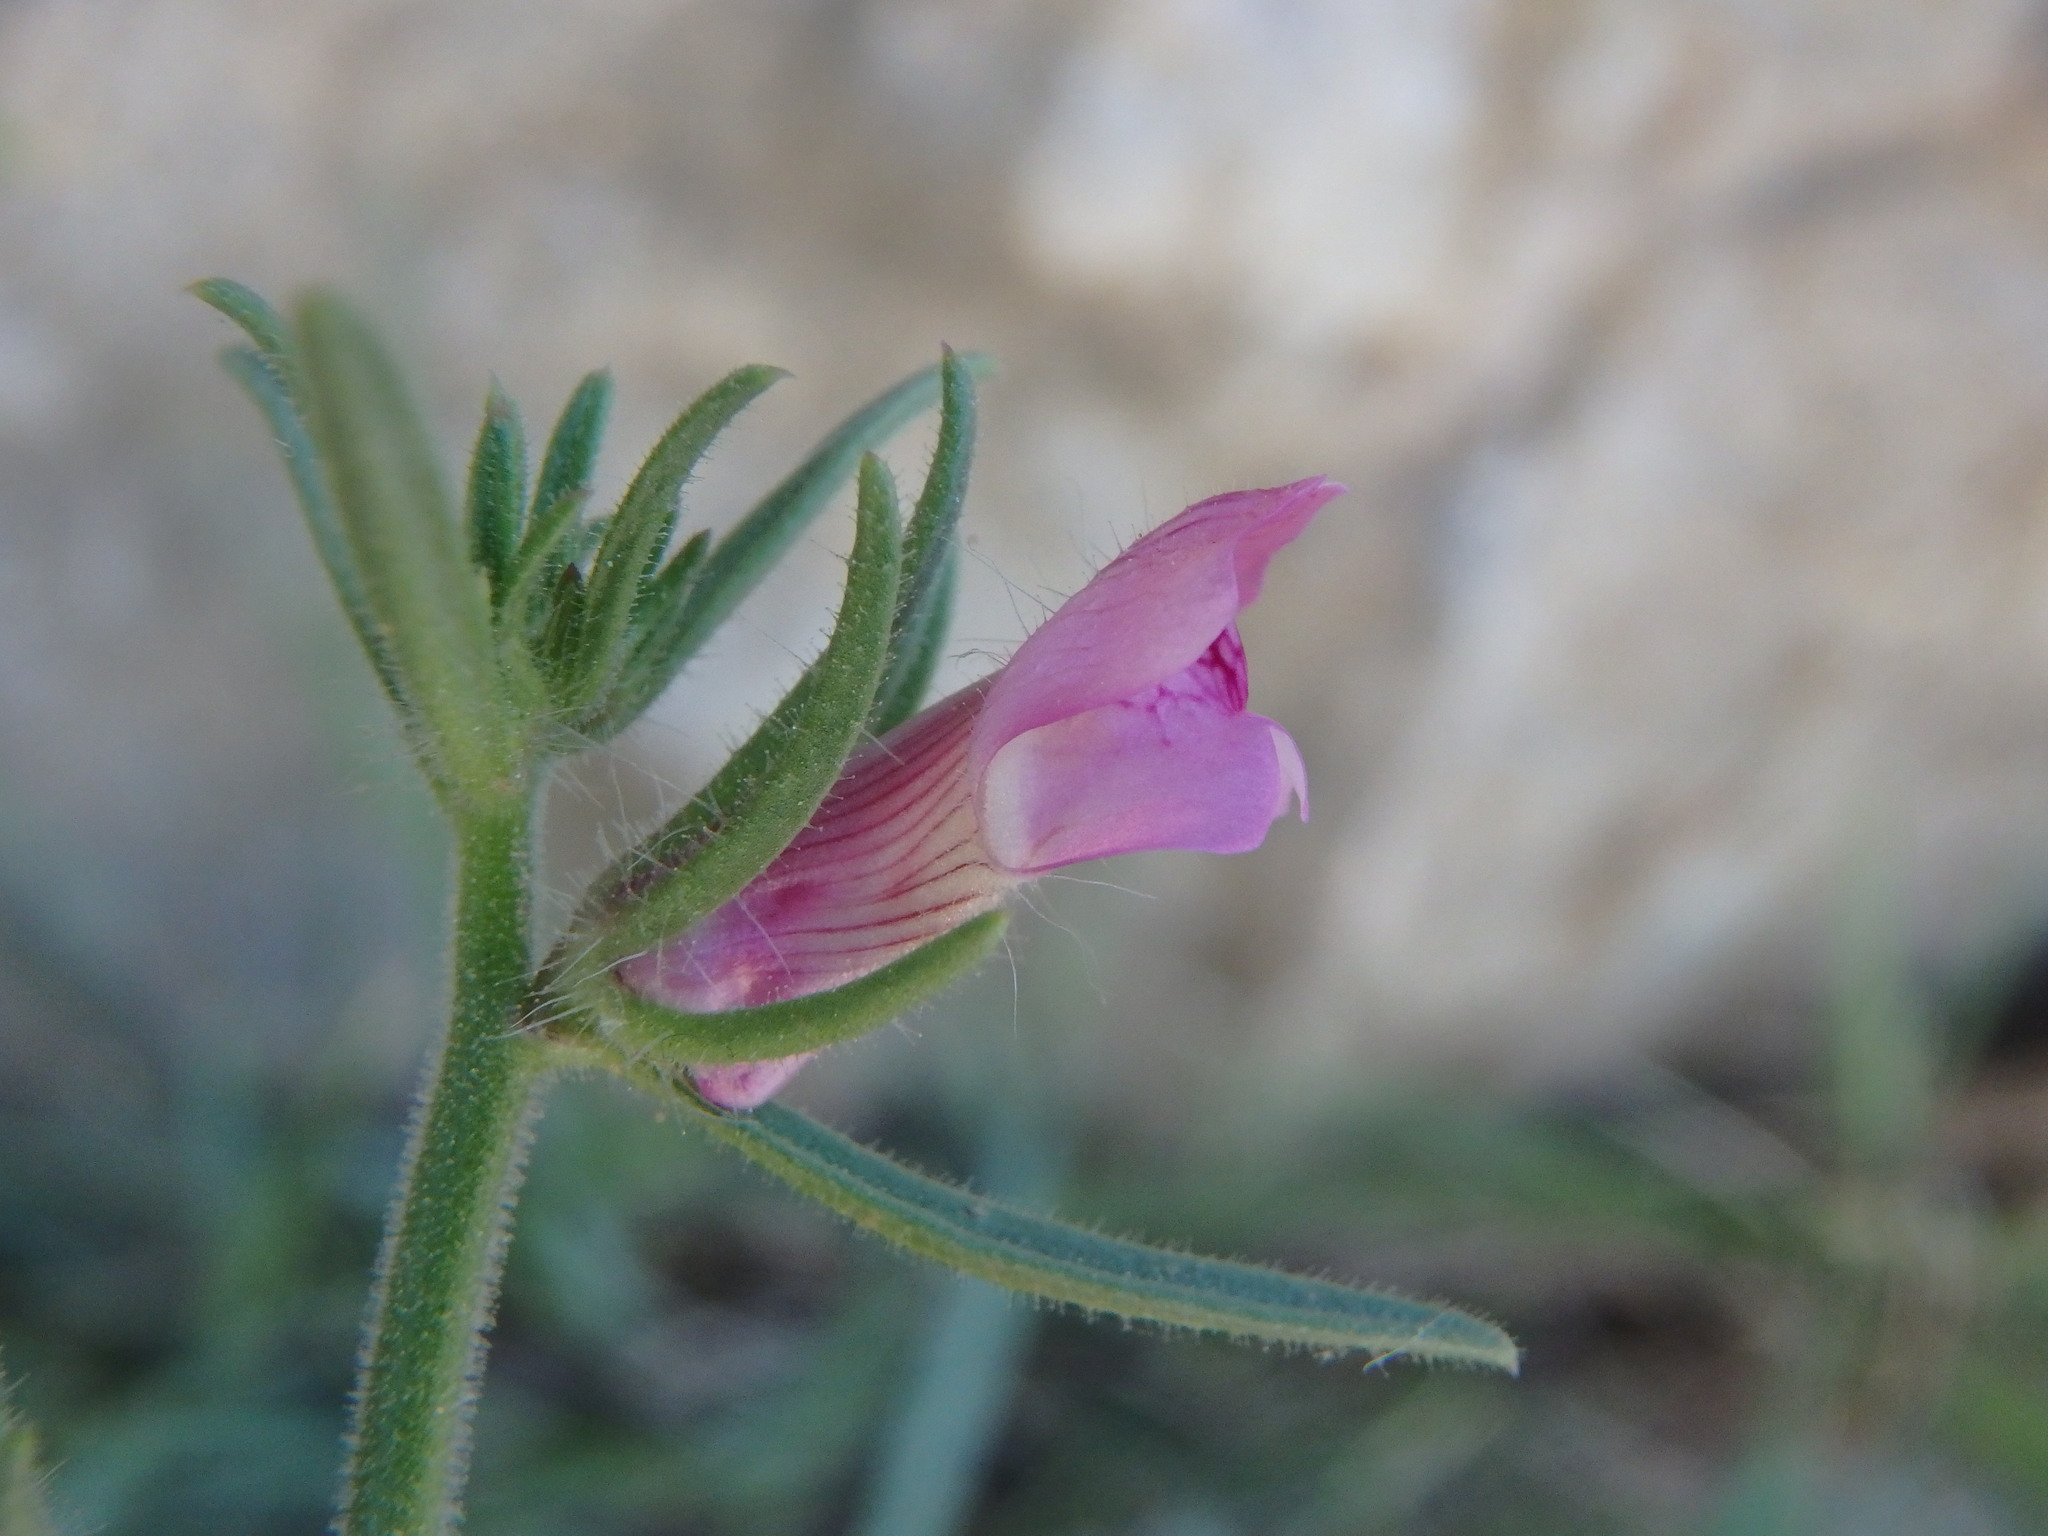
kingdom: Plantae
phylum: Tracheophyta
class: Magnoliopsida
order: Lamiales
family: Plantaginaceae
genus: Misopates
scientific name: Misopates orontium
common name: Weasel's-snout
